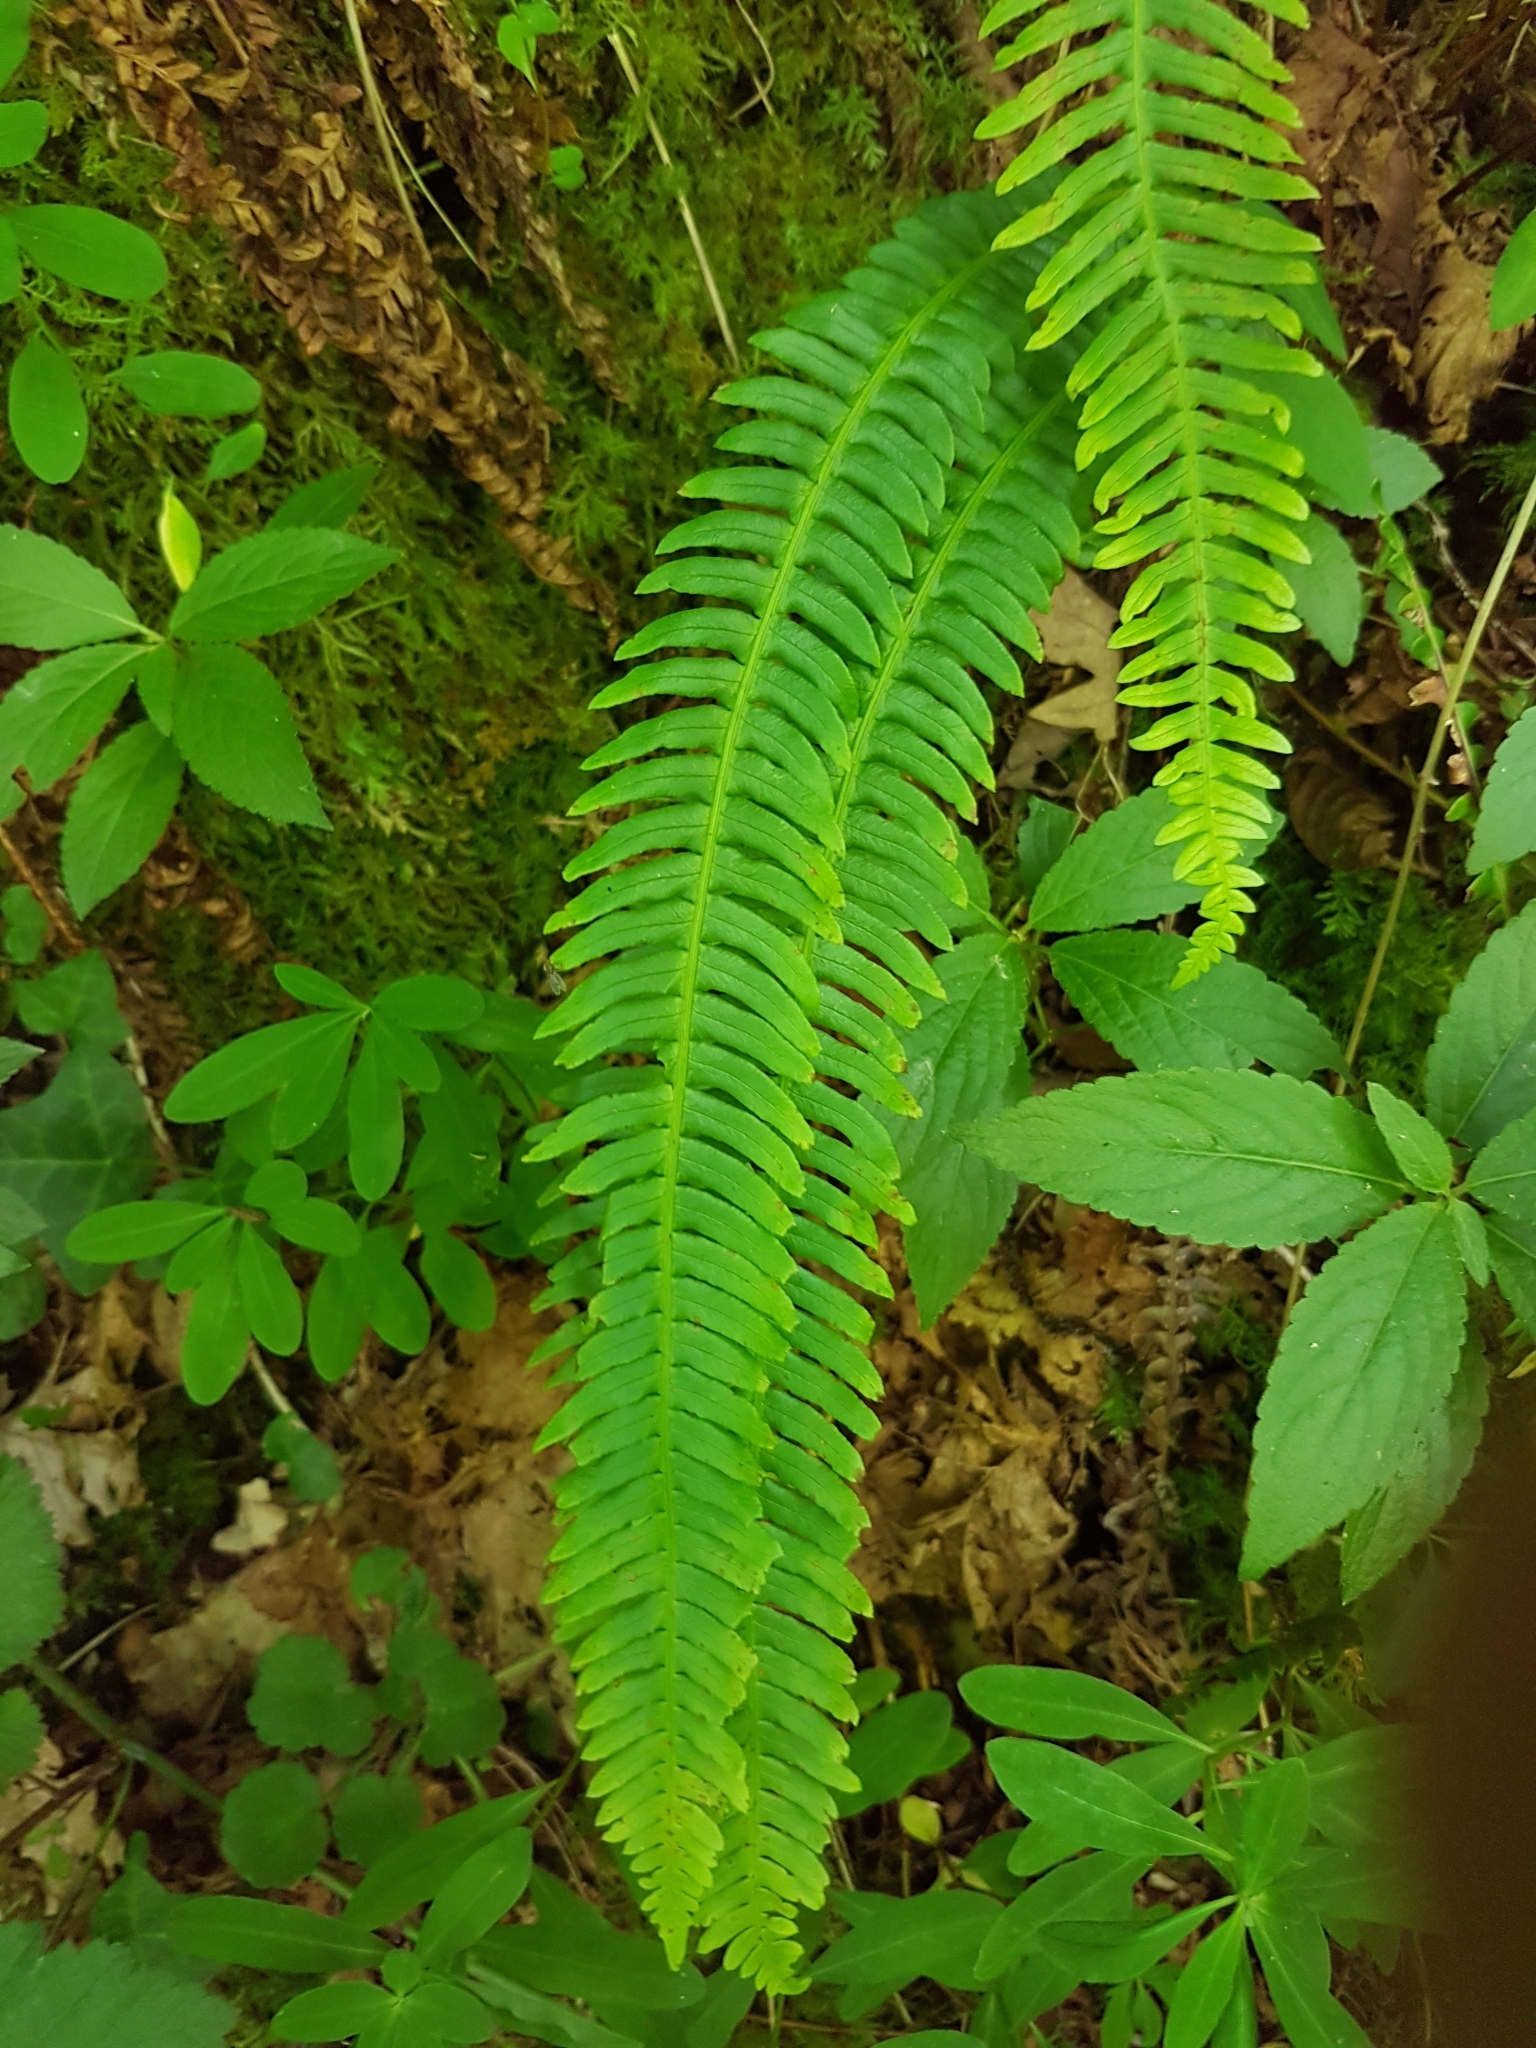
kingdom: Plantae
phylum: Tracheophyta
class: Polypodiopsida
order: Polypodiales
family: Blechnaceae
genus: Struthiopteris
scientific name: Struthiopteris spicant
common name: Deer fern
